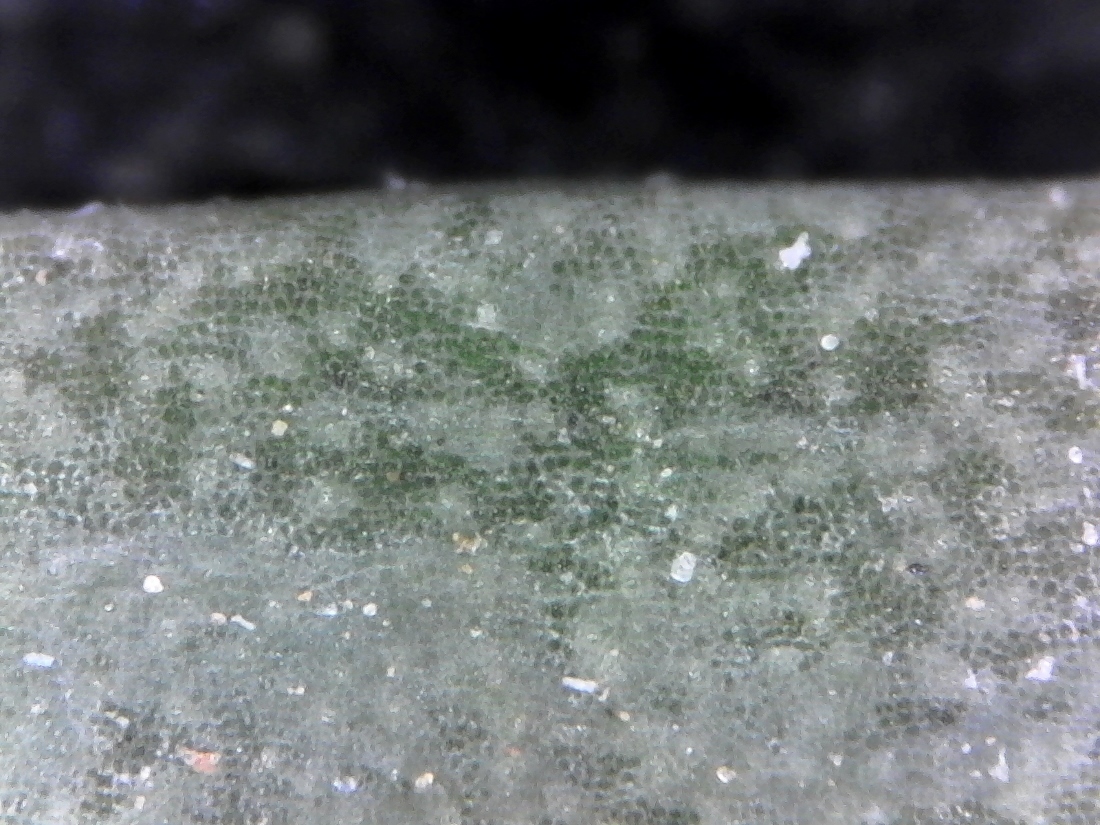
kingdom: Plantae
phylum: Tracheophyta
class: Magnoliopsida
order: Gentianales
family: Apocynaceae
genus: Microloma
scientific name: Microloma sagittatum
